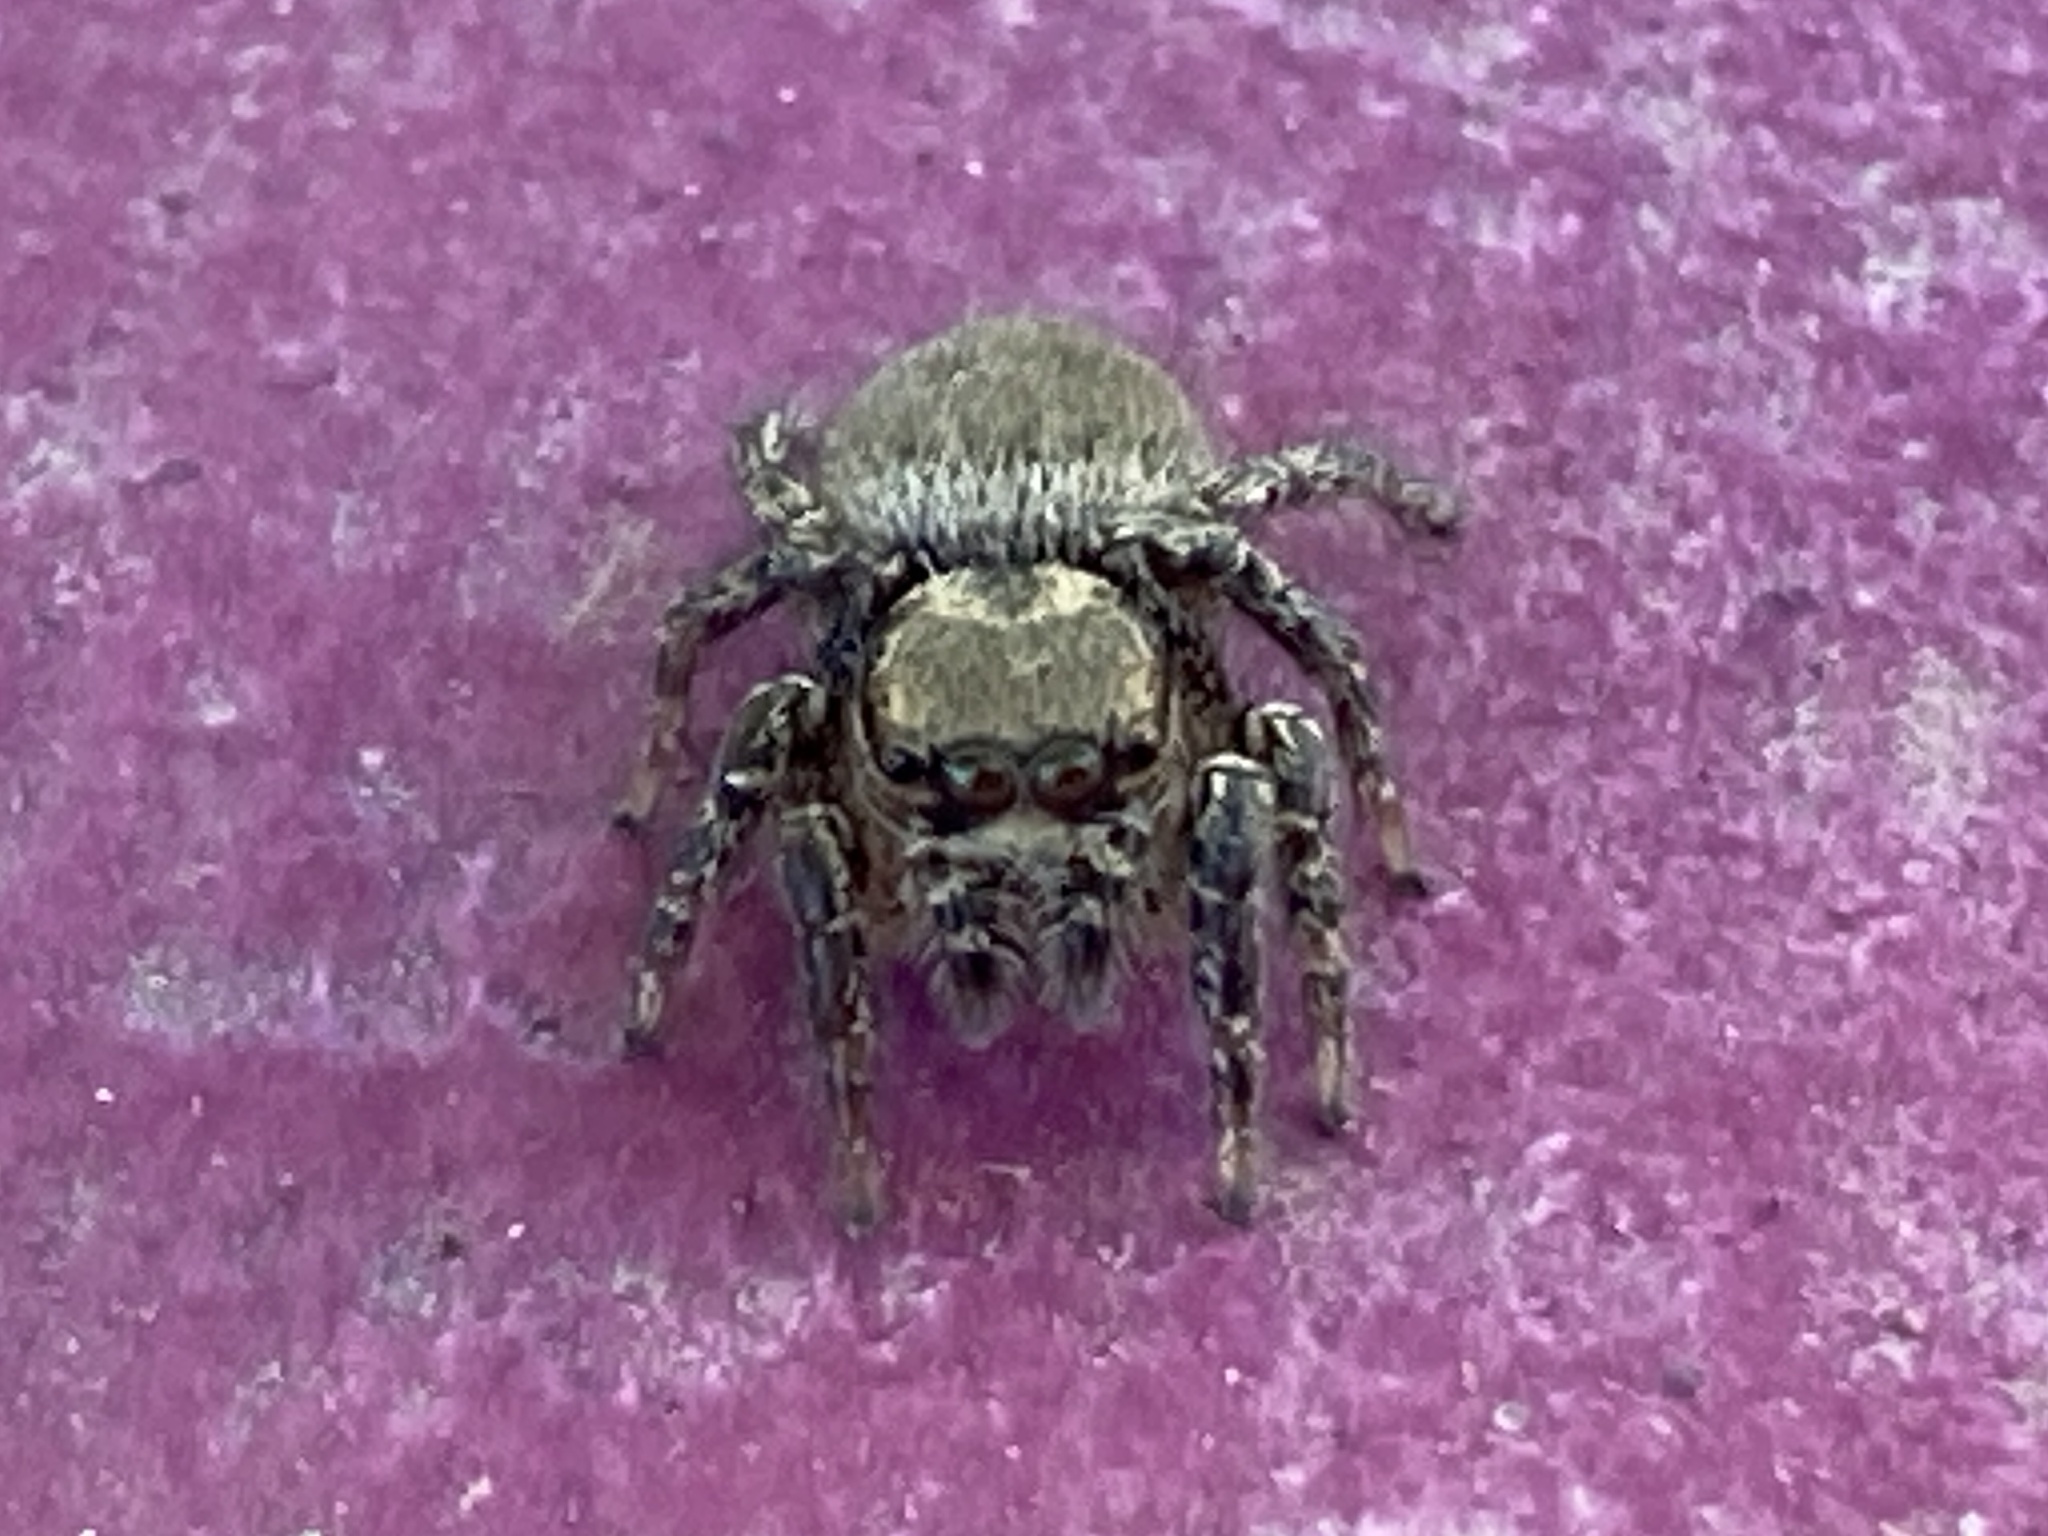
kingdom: Animalia
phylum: Arthropoda
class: Arachnida
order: Araneae
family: Salticidae
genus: Habronattus
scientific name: Habronattus hallani
